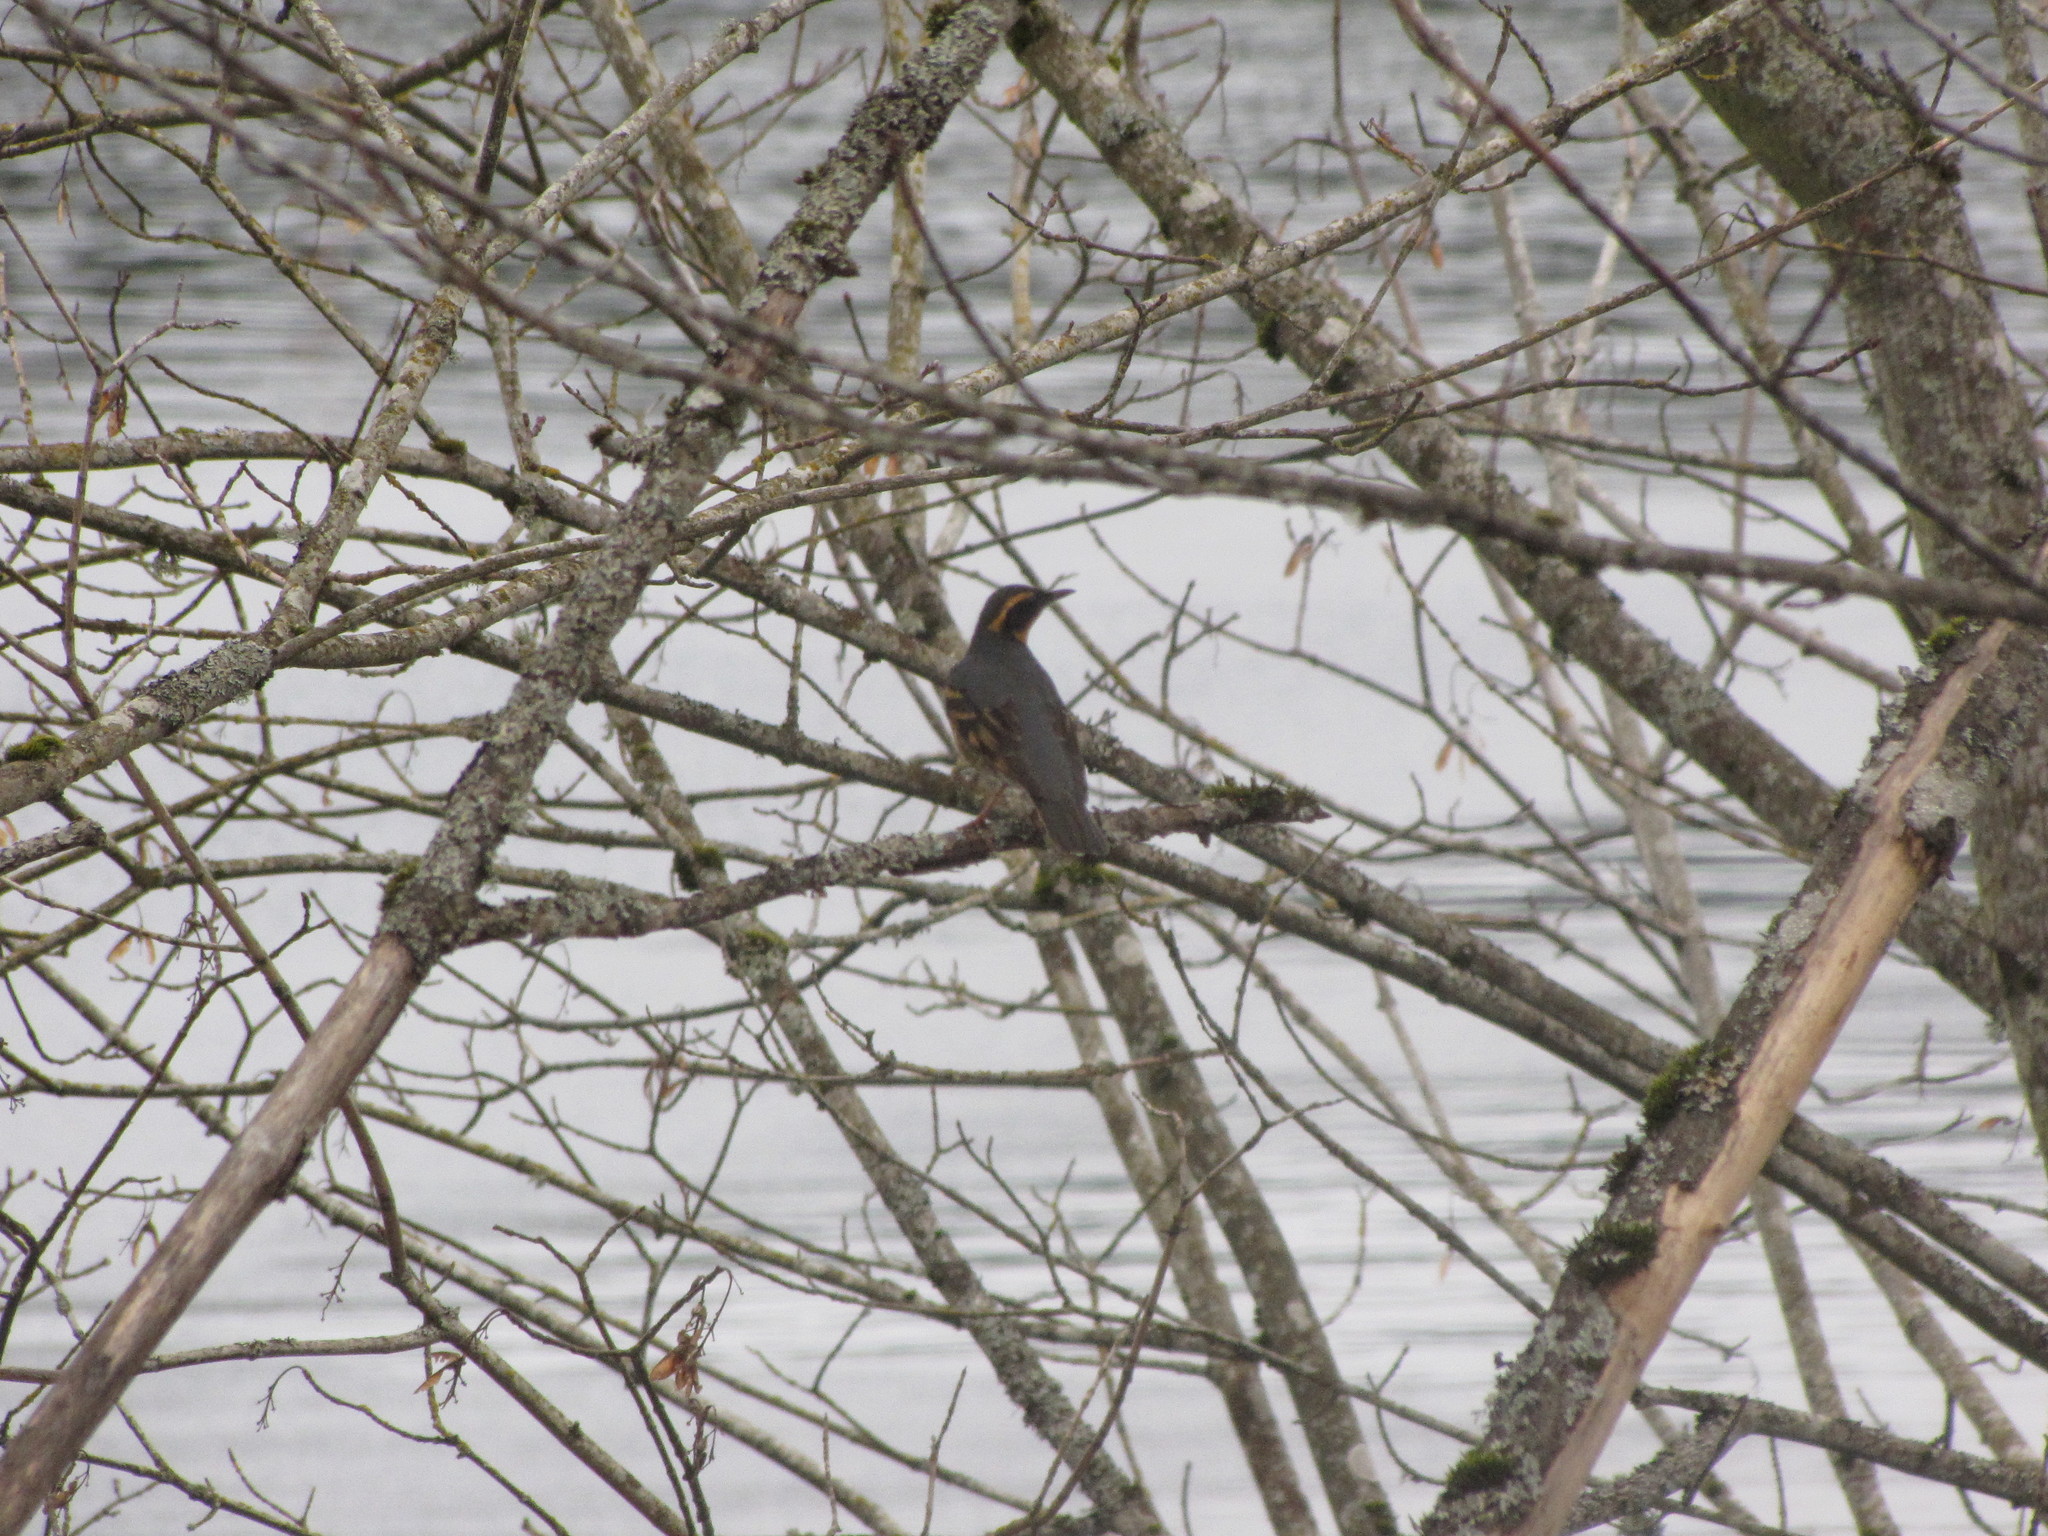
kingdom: Animalia
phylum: Chordata
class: Aves
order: Passeriformes
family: Turdidae
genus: Ixoreus
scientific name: Ixoreus naevius
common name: Varied thrush
